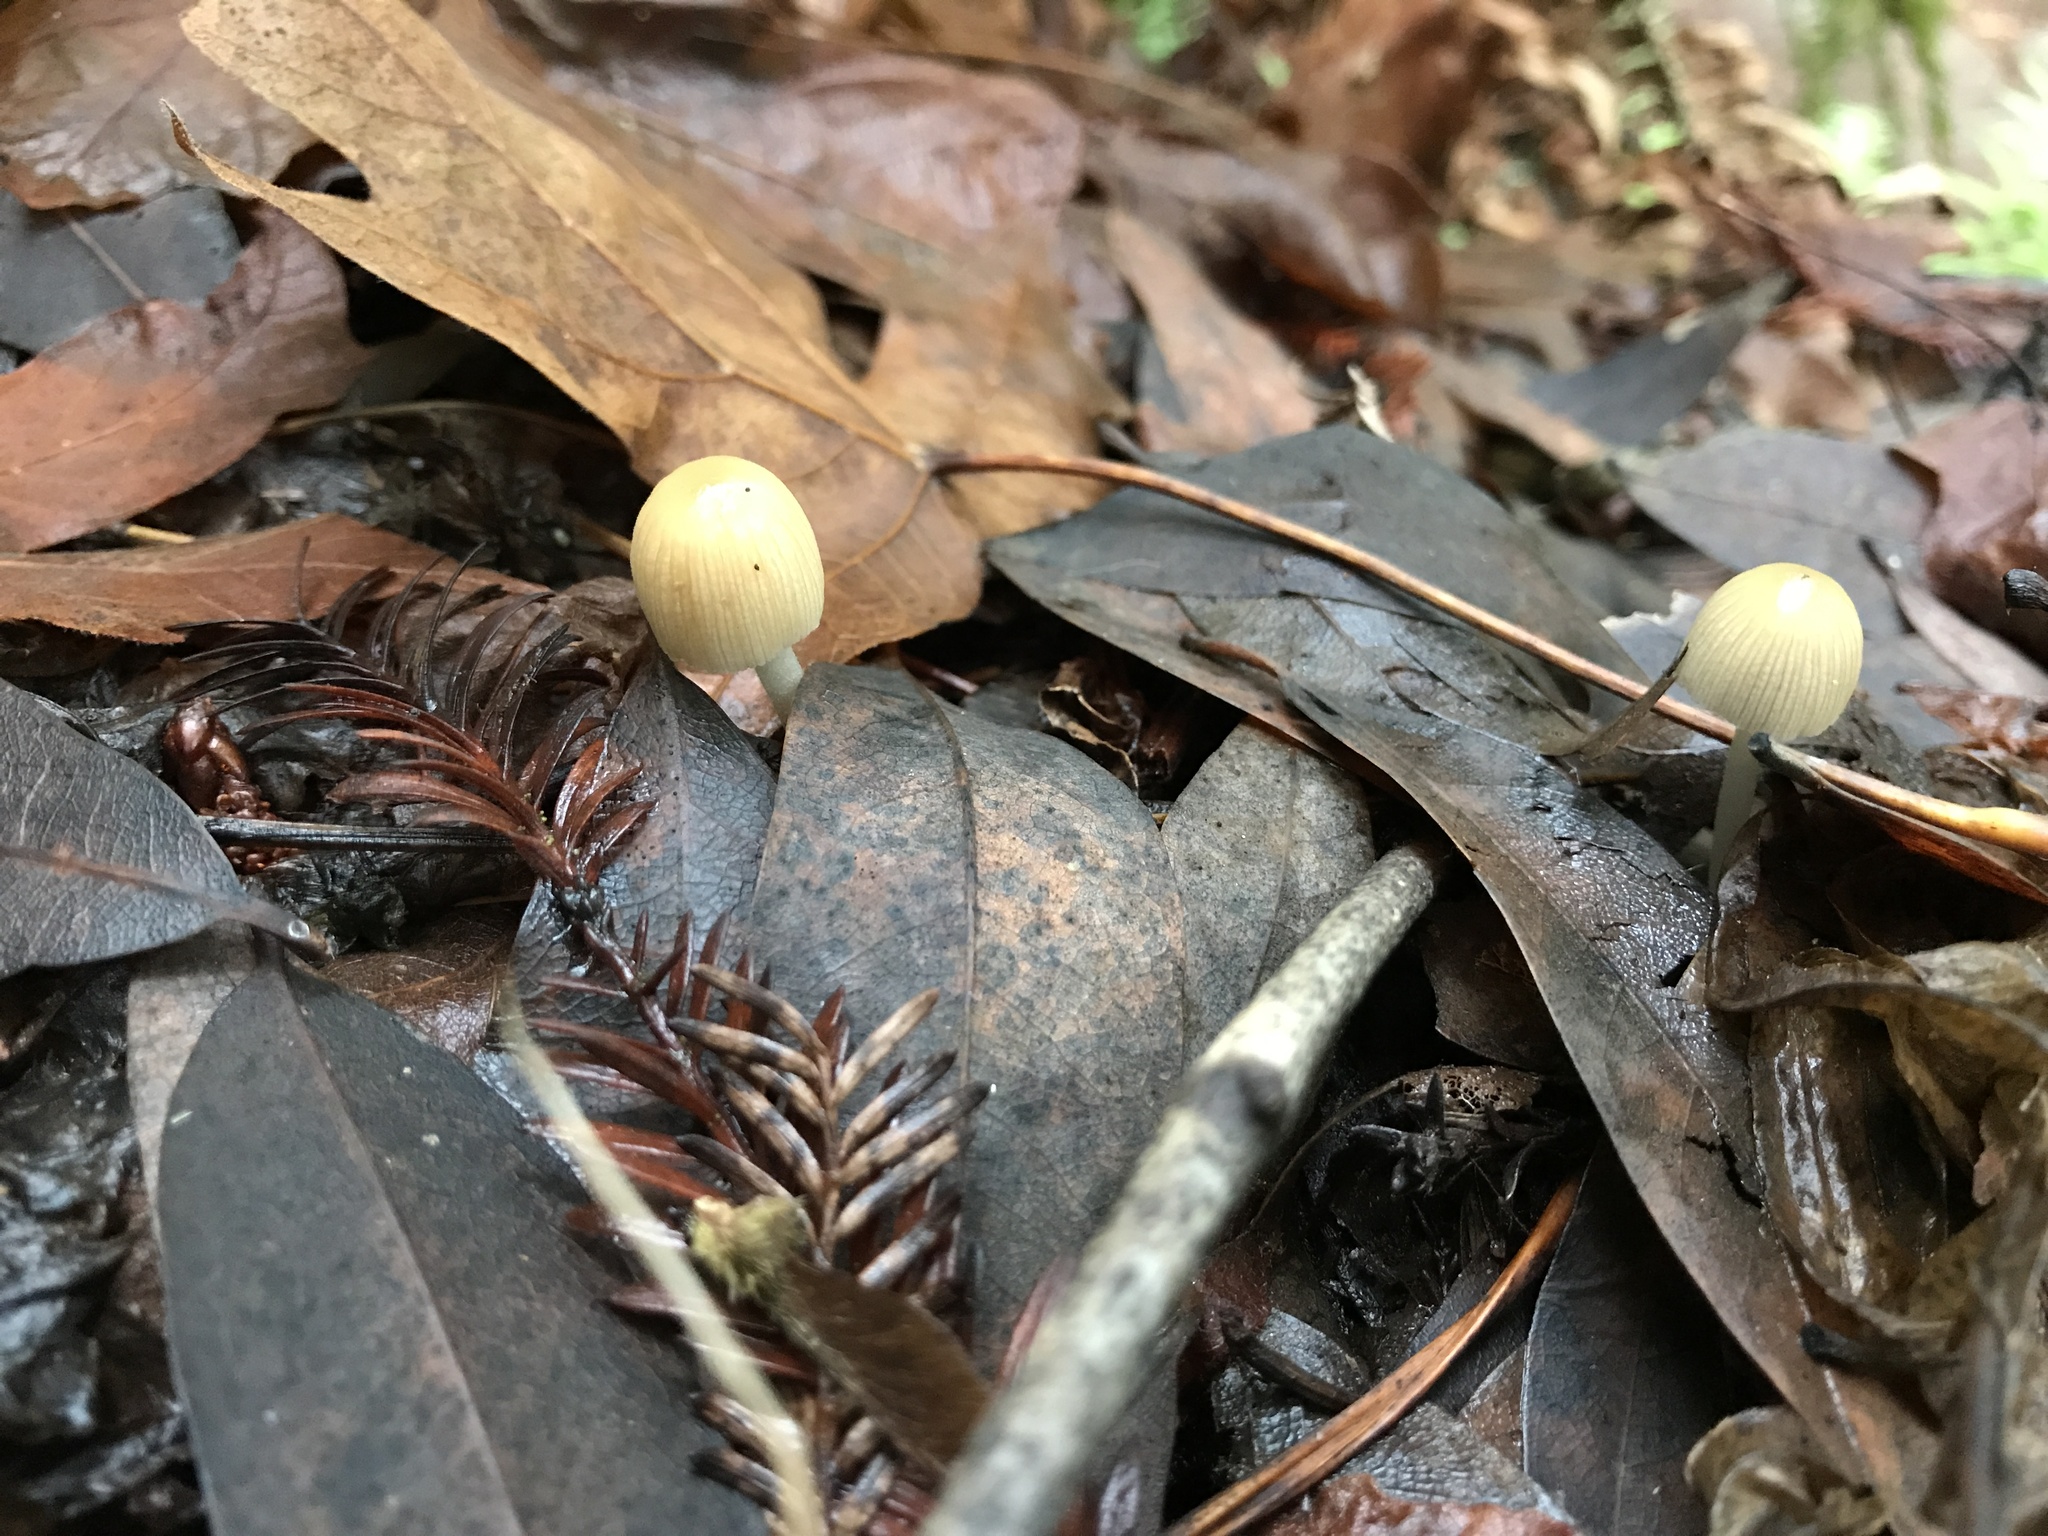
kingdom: Fungi
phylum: Basidiomycota
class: Agaricomycetes
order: Agaricales
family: Bolbitiaceae
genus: Bolbitius
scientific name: Bolbitius titubans
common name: Yellow fieldcap
